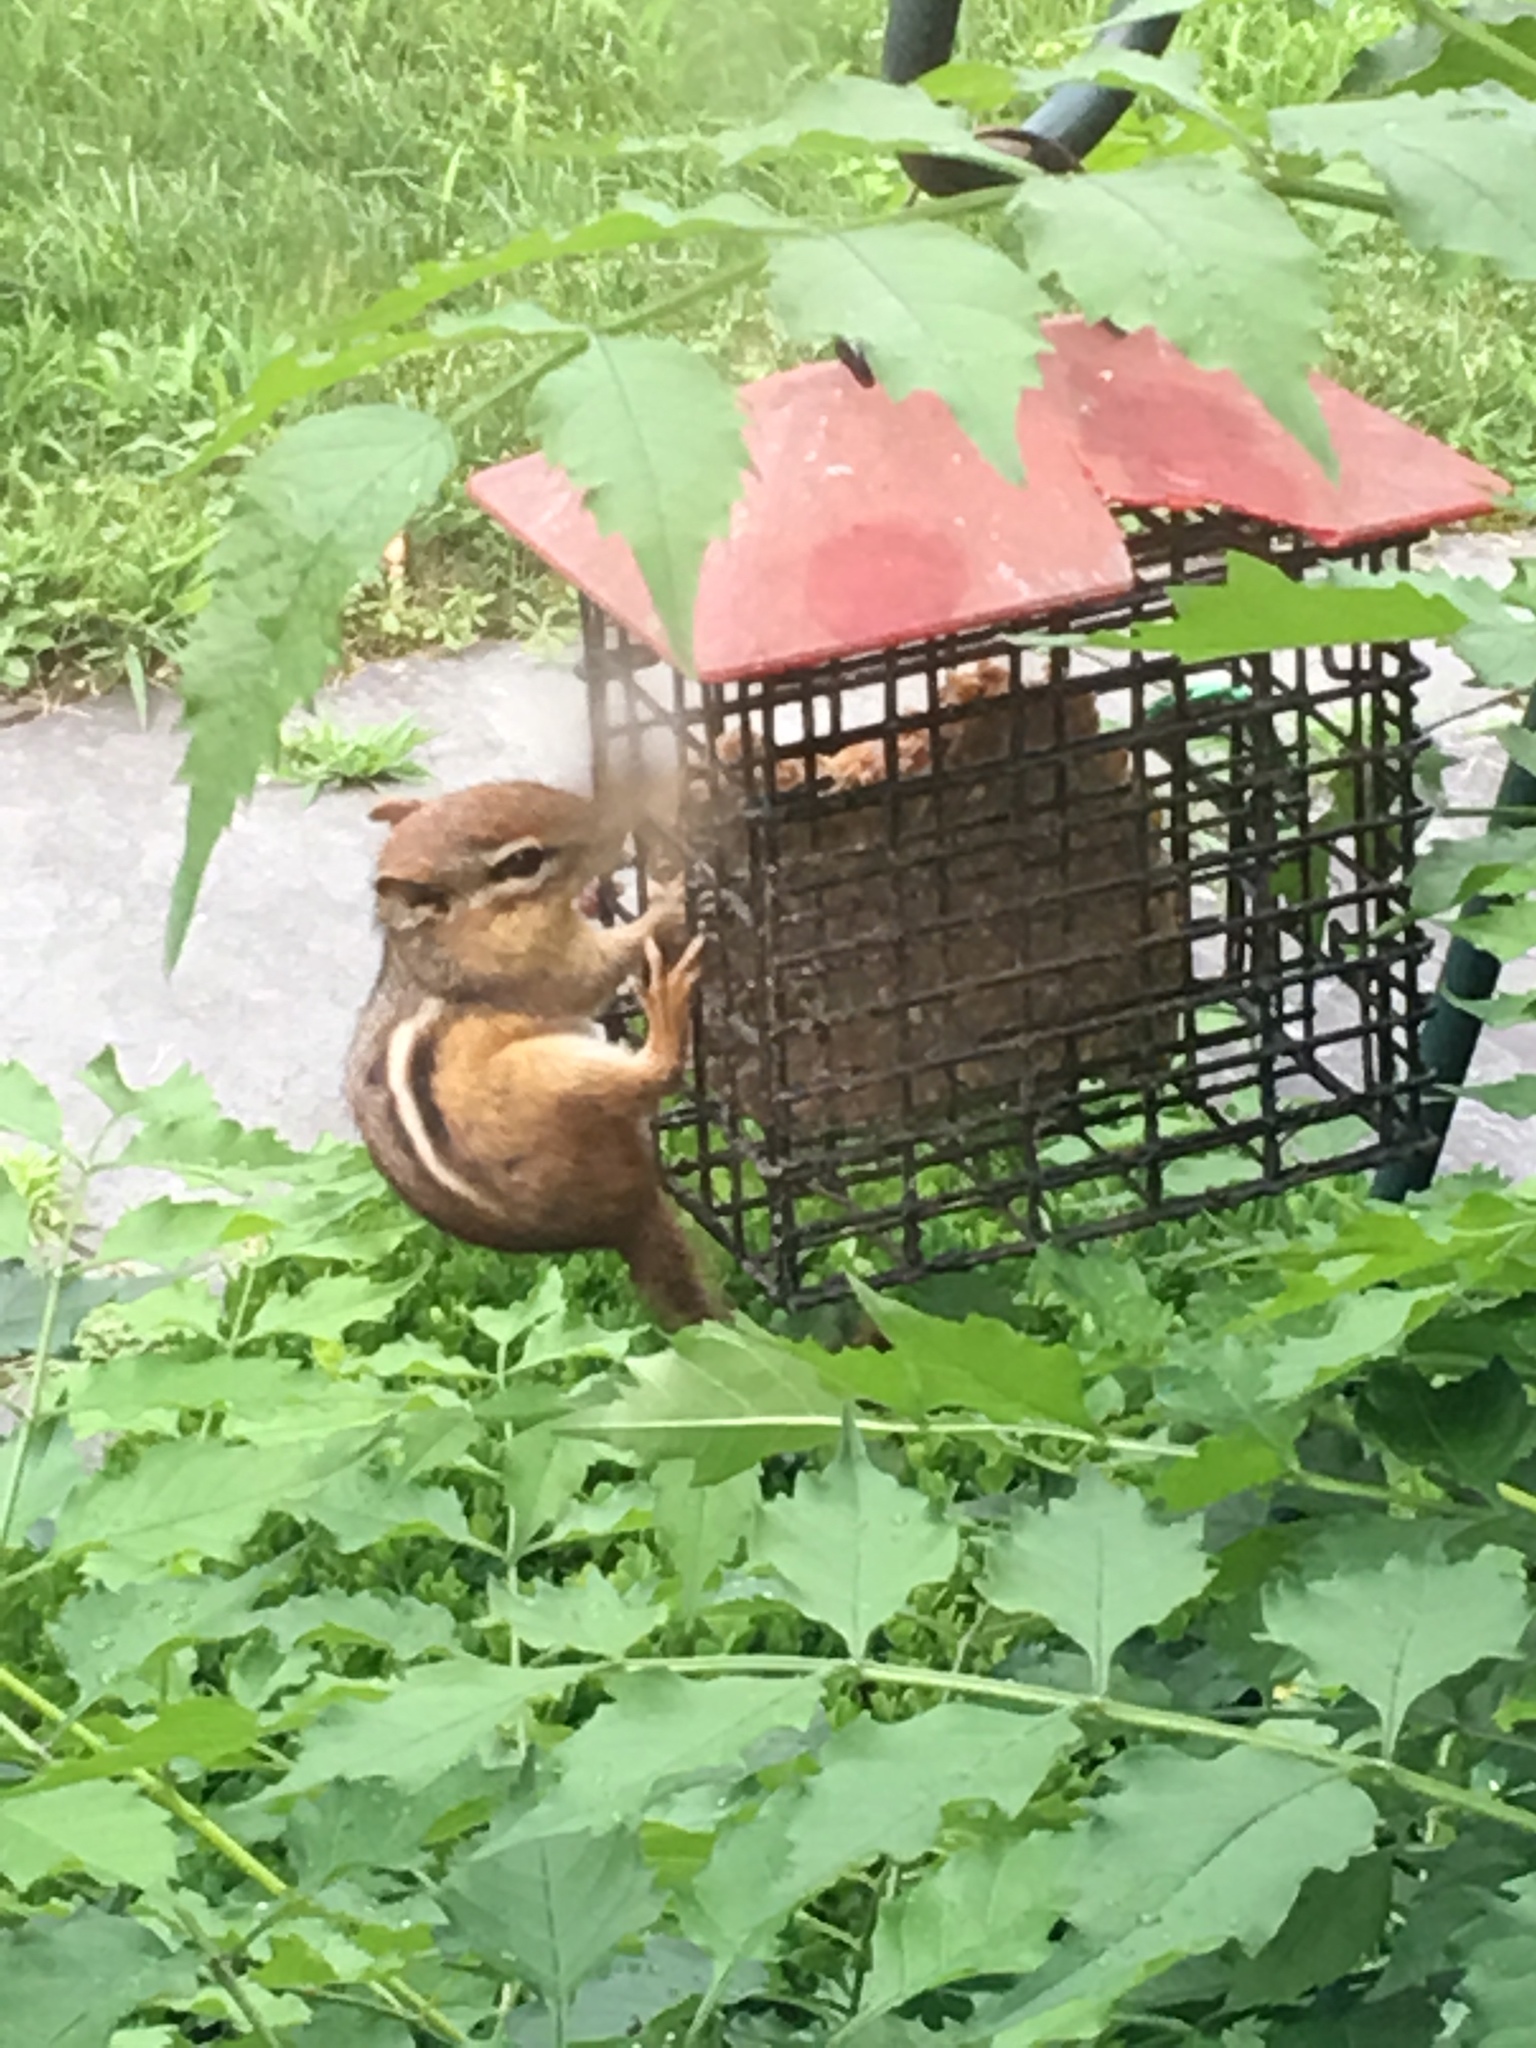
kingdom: Animalia
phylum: Chordata
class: Mammalia
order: Rodentia
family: Sciuridae
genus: Tamias
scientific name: Tamias striatus
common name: Eastern chipmunk
